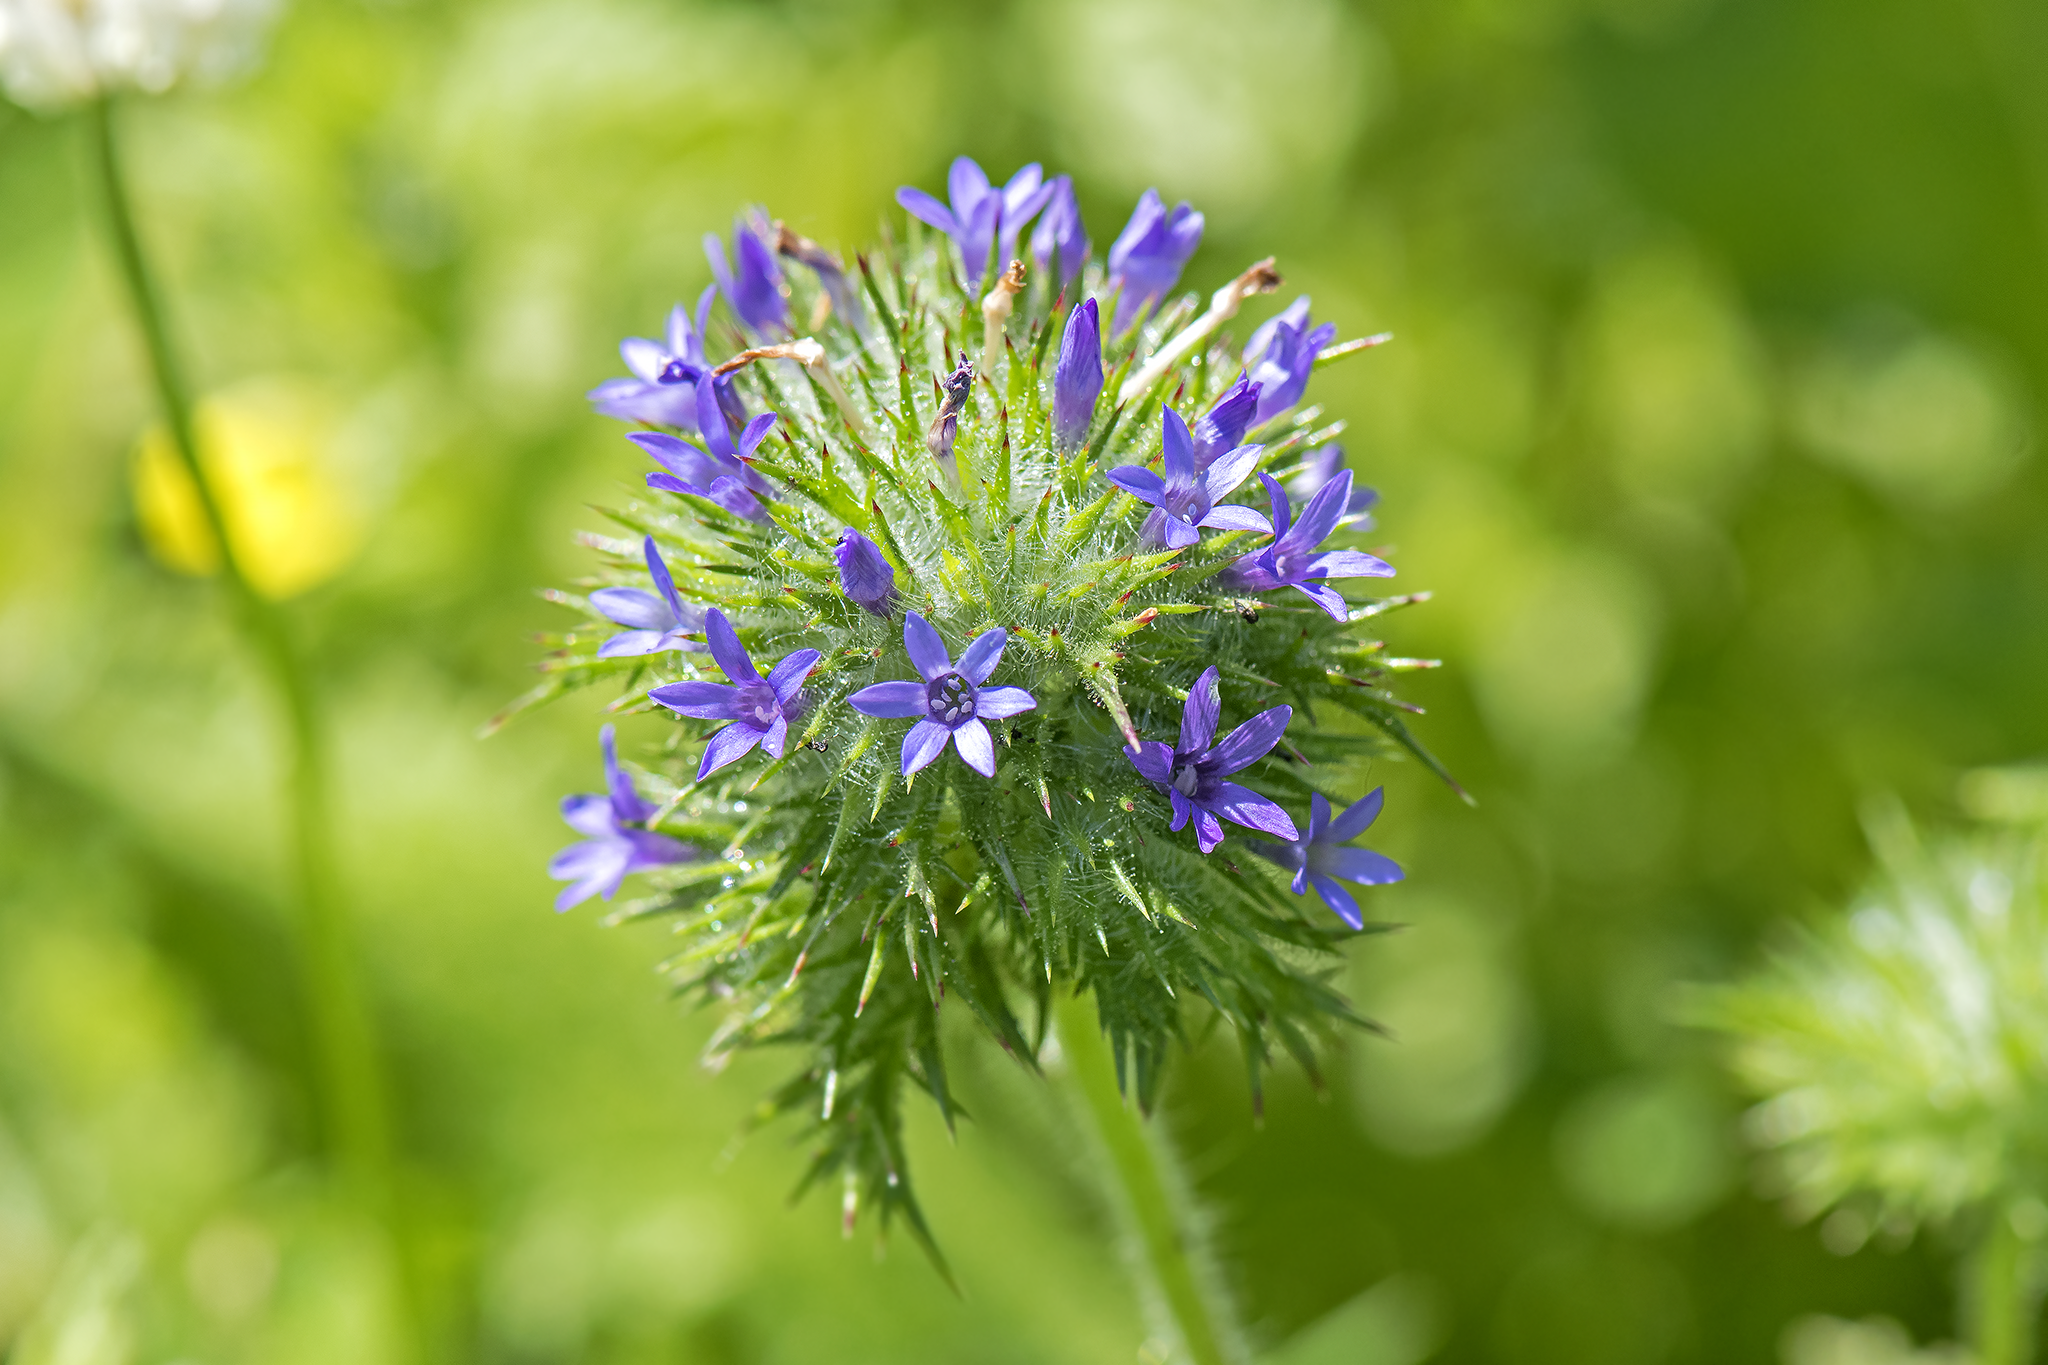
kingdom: Plantae
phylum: Tracheophyta
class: Magnoliopsida
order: Ericales
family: Polemoniaceae
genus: Navarretia
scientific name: Navarretia squarrosa
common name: Skunkweed
